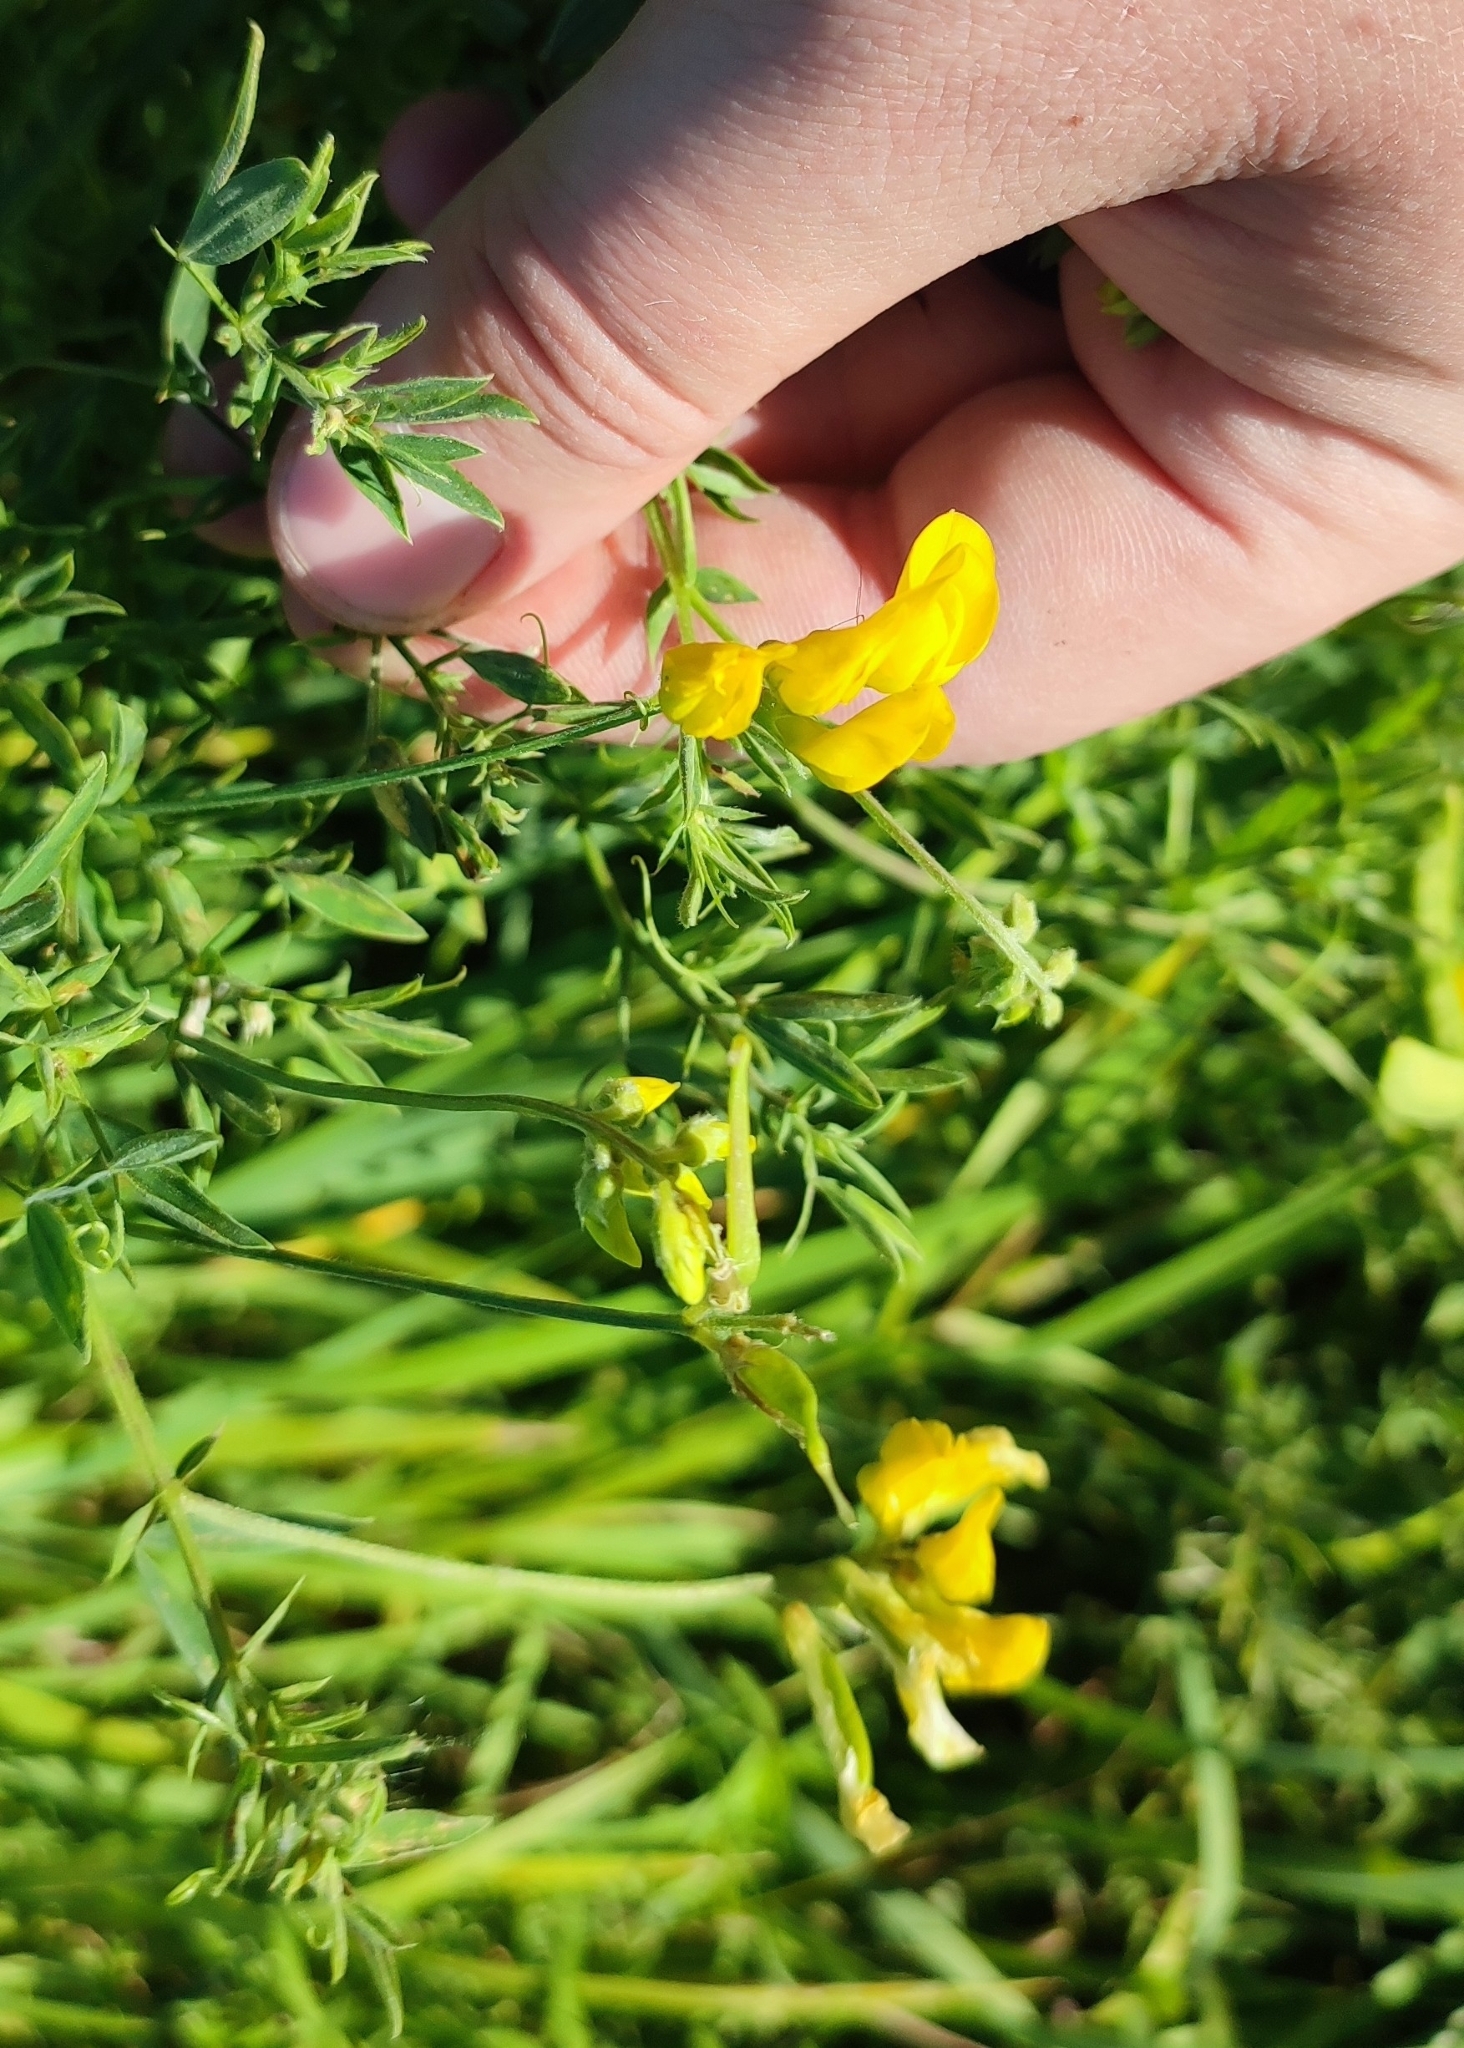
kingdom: Plantae
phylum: Tracheophyta
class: Magnoliopsida
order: Fabales
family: Fabaceae
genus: Lathyrus
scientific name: Lathyrus pratensis
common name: Meadow vetchling
